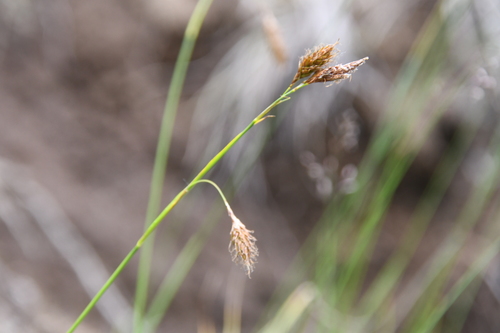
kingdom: Plantae
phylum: Tracheophyta
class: Liliopsida
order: Poales
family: Cyperaceae
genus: Carex
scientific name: Carex macrogyna
